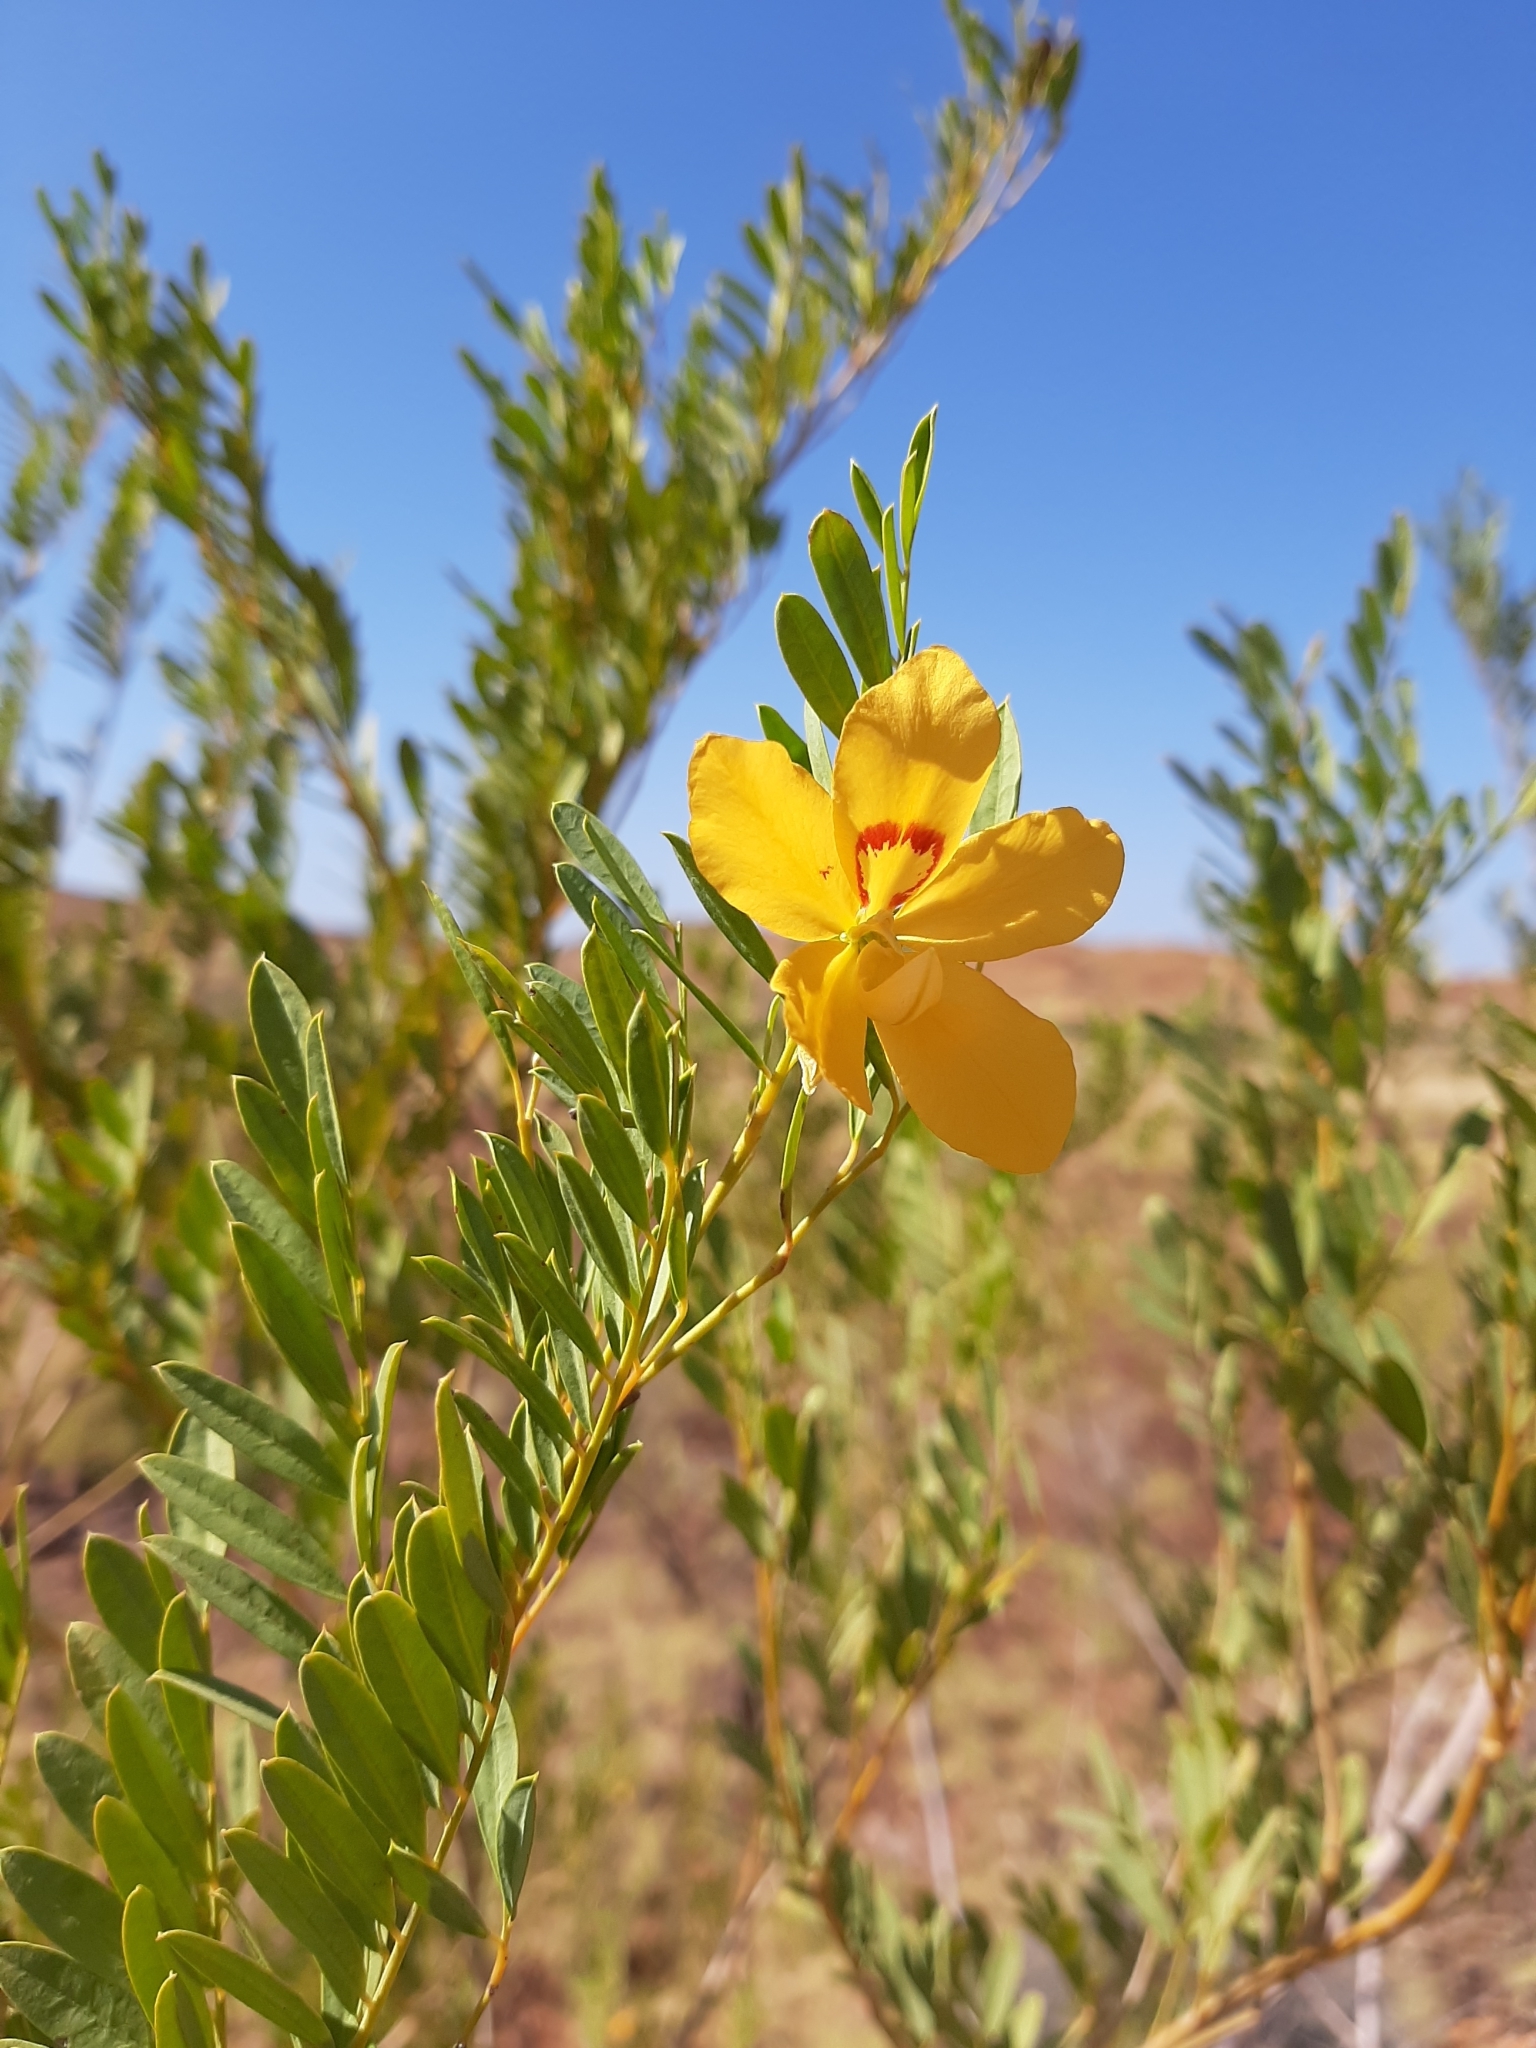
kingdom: Plantae
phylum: Tracheophyta
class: Magnoliopsida
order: Fabales
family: Fabaceae
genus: Petalostylis
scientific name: Petalostylis labicheoides
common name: Butterfly bush
